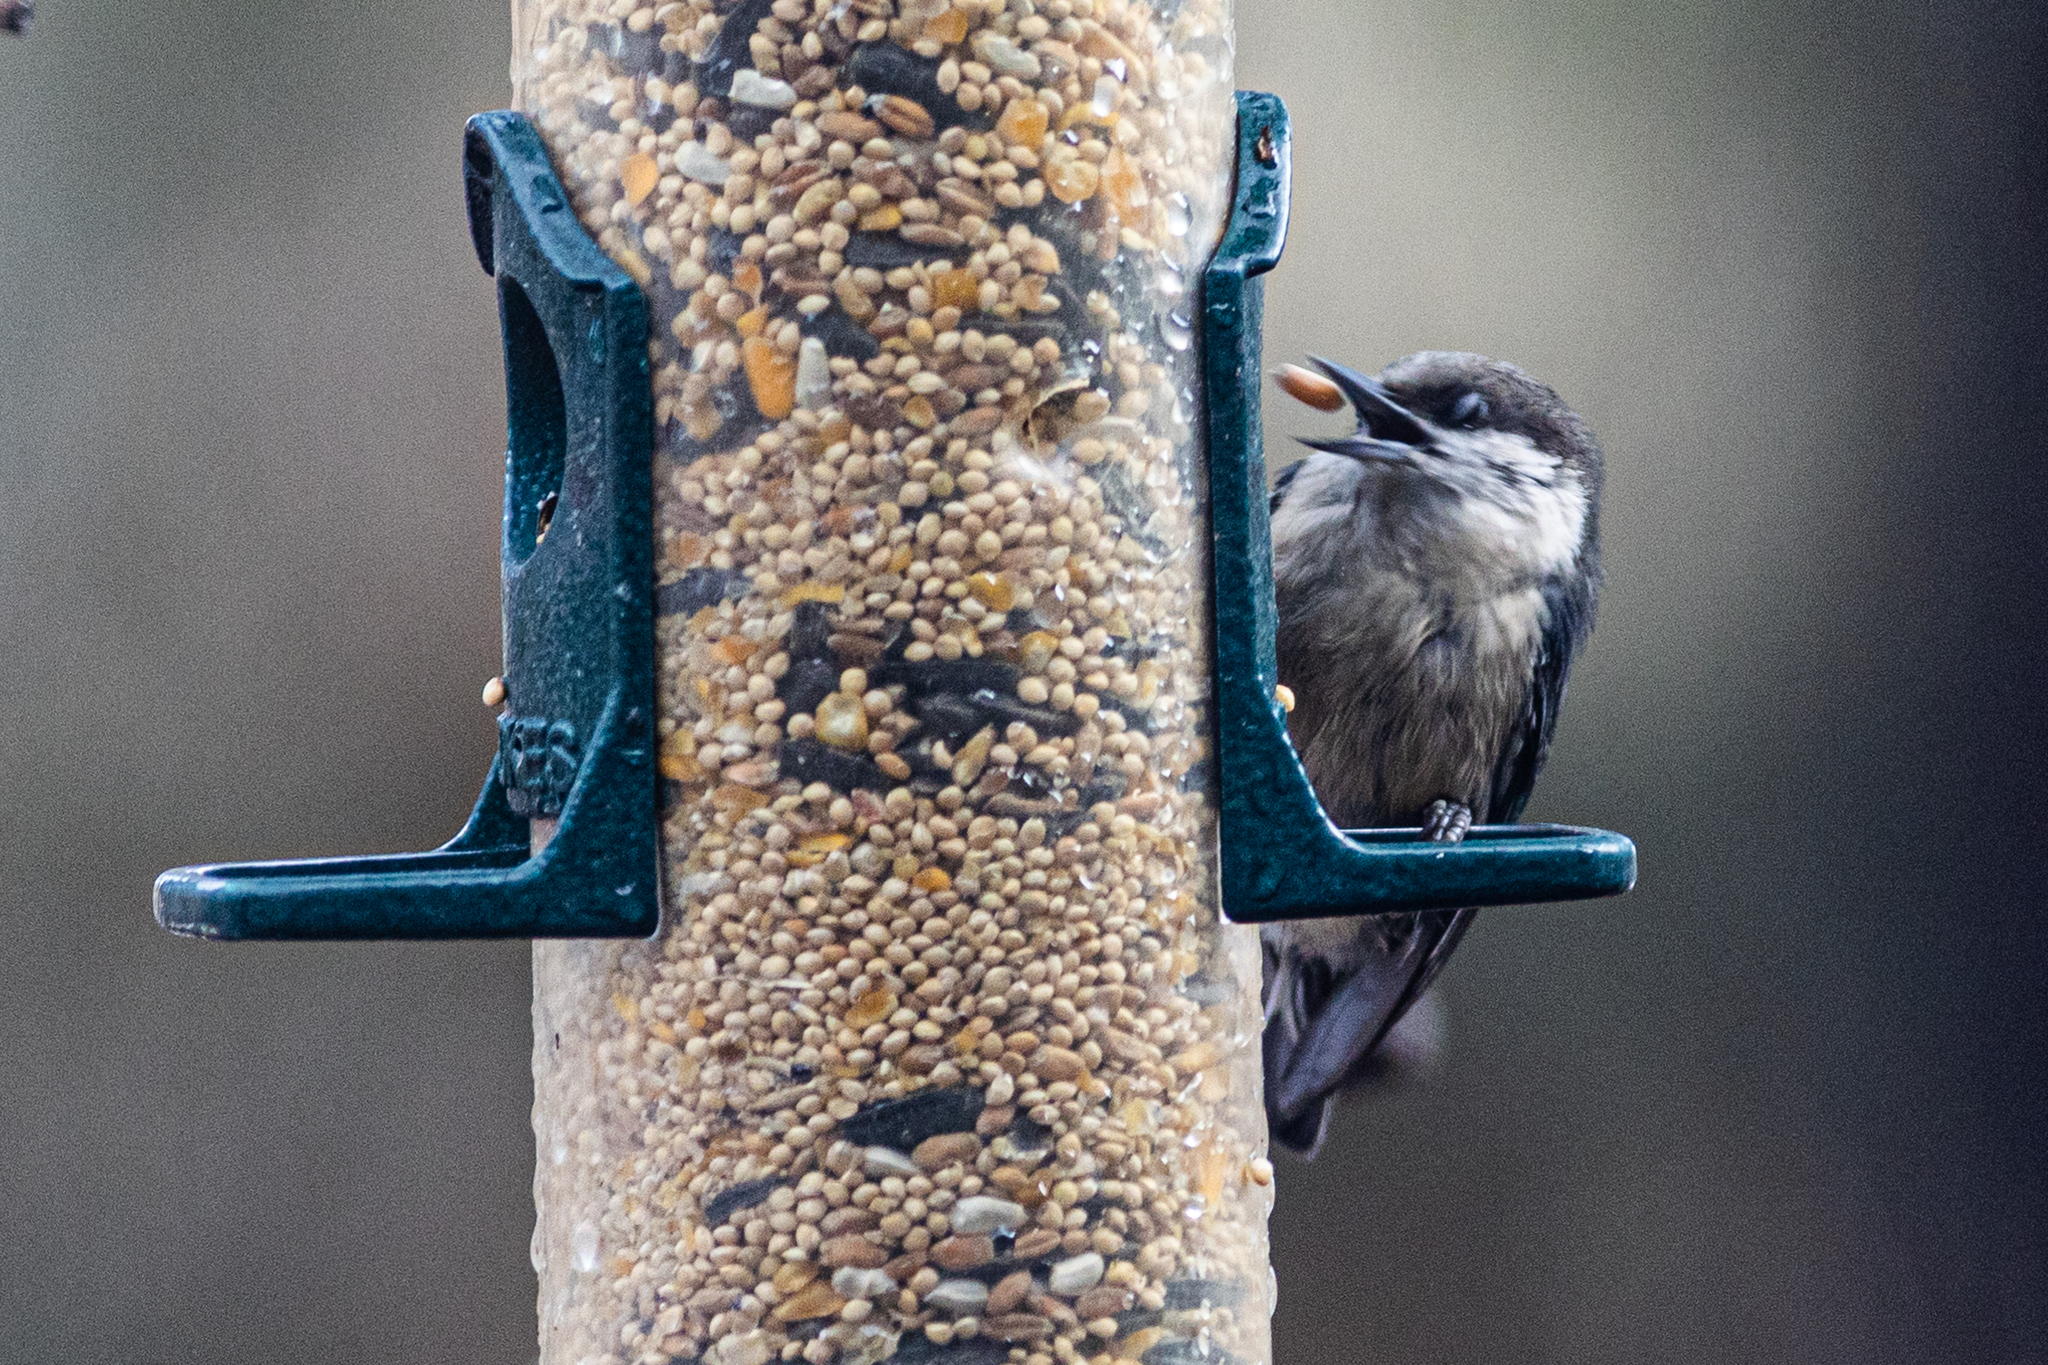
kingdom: Animalia
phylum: Chordata
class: Aves
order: Passeriformes
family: Sittidae
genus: Sitta
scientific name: Sitta pygmaea
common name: Pygmy nuthatch
